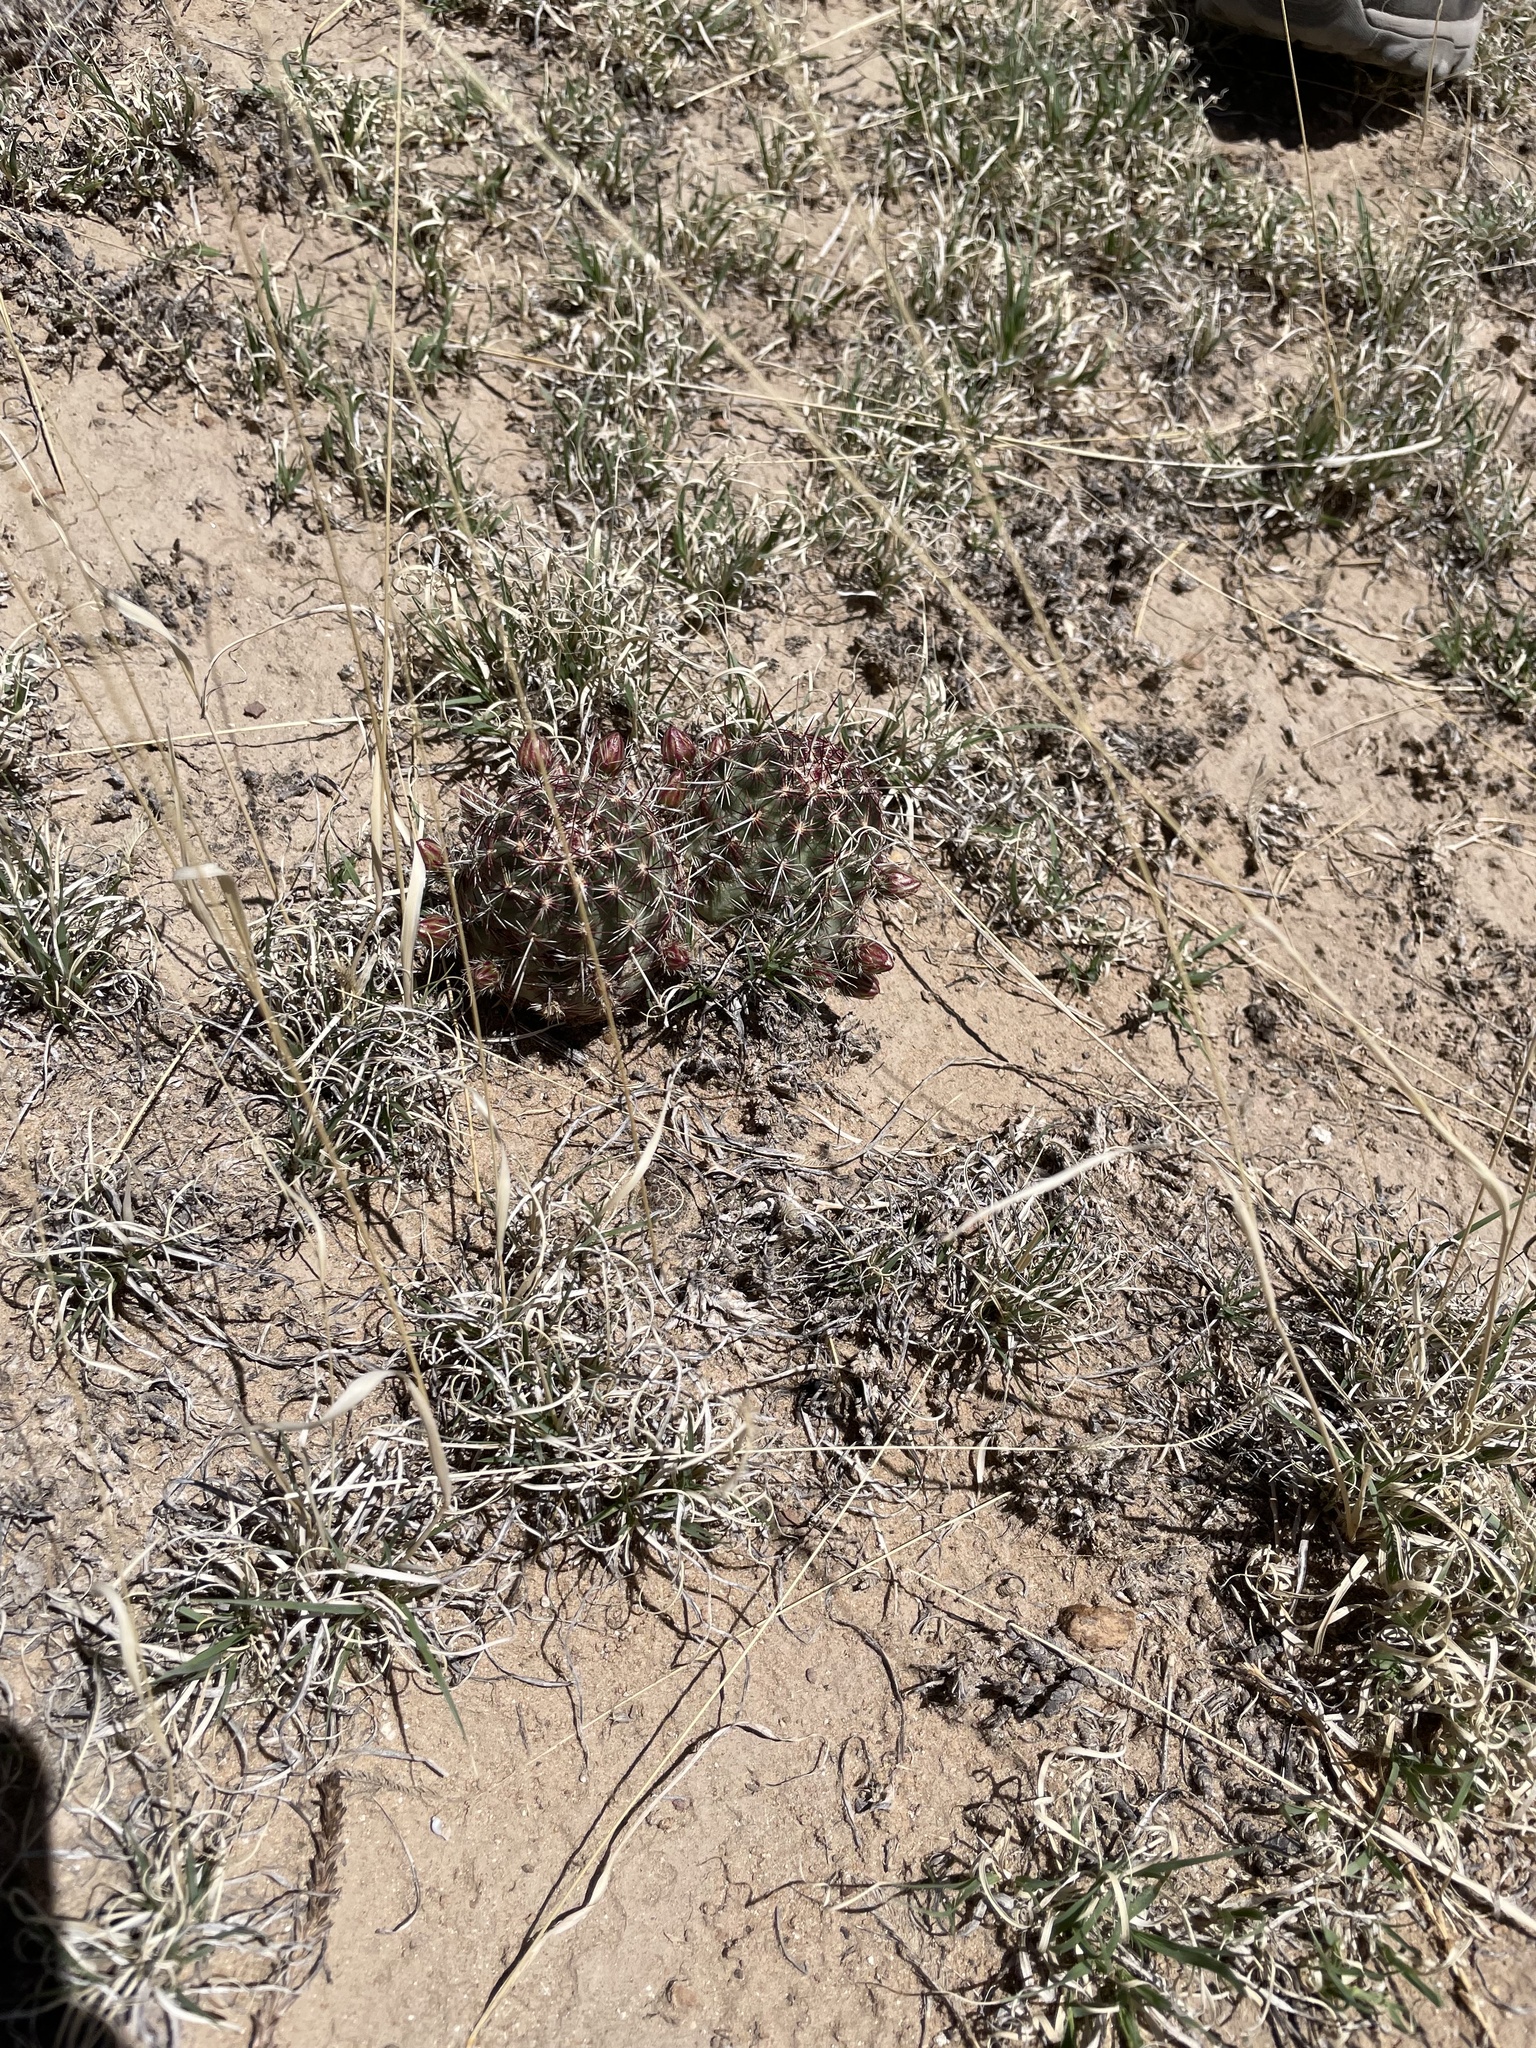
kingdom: Plantae
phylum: Tracheophyta
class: Magnoliopsida
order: Caryophyllales
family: Cactaceae
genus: Echinocereus
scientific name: Echinocereus viridiflorus
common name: Nylon hedgehog cactus
